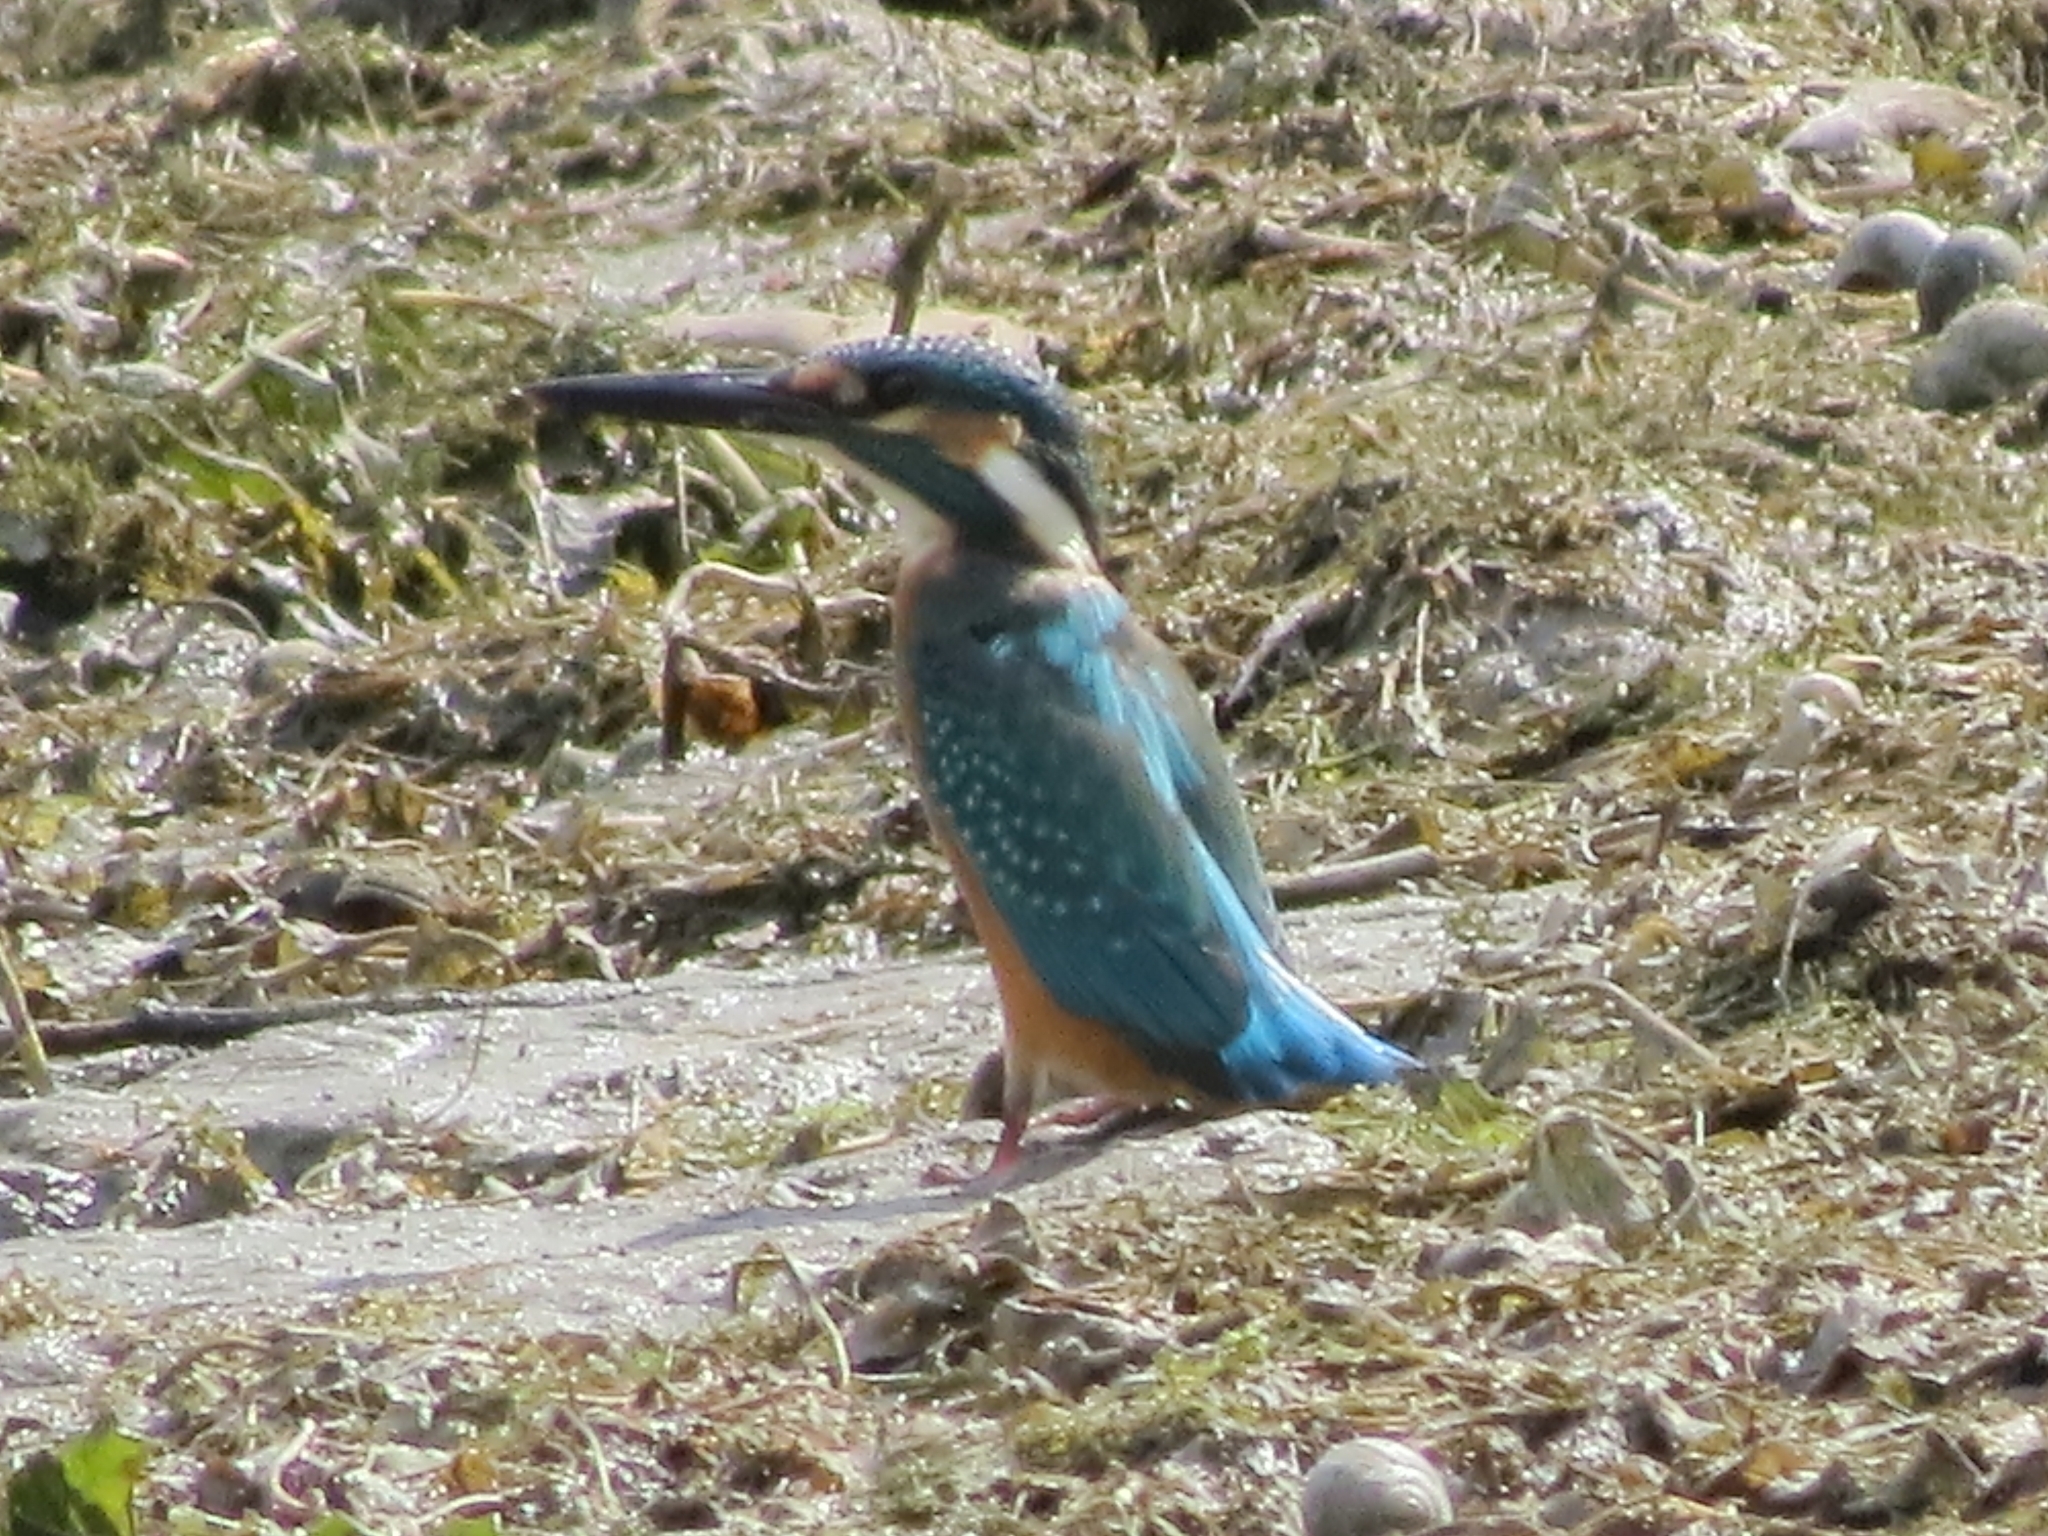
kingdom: Animalia
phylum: Chordata
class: Aves
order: Coraciiformes
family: Alcedinidae
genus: Alcedo
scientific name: Alcedo atthis
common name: Common kingfisher
